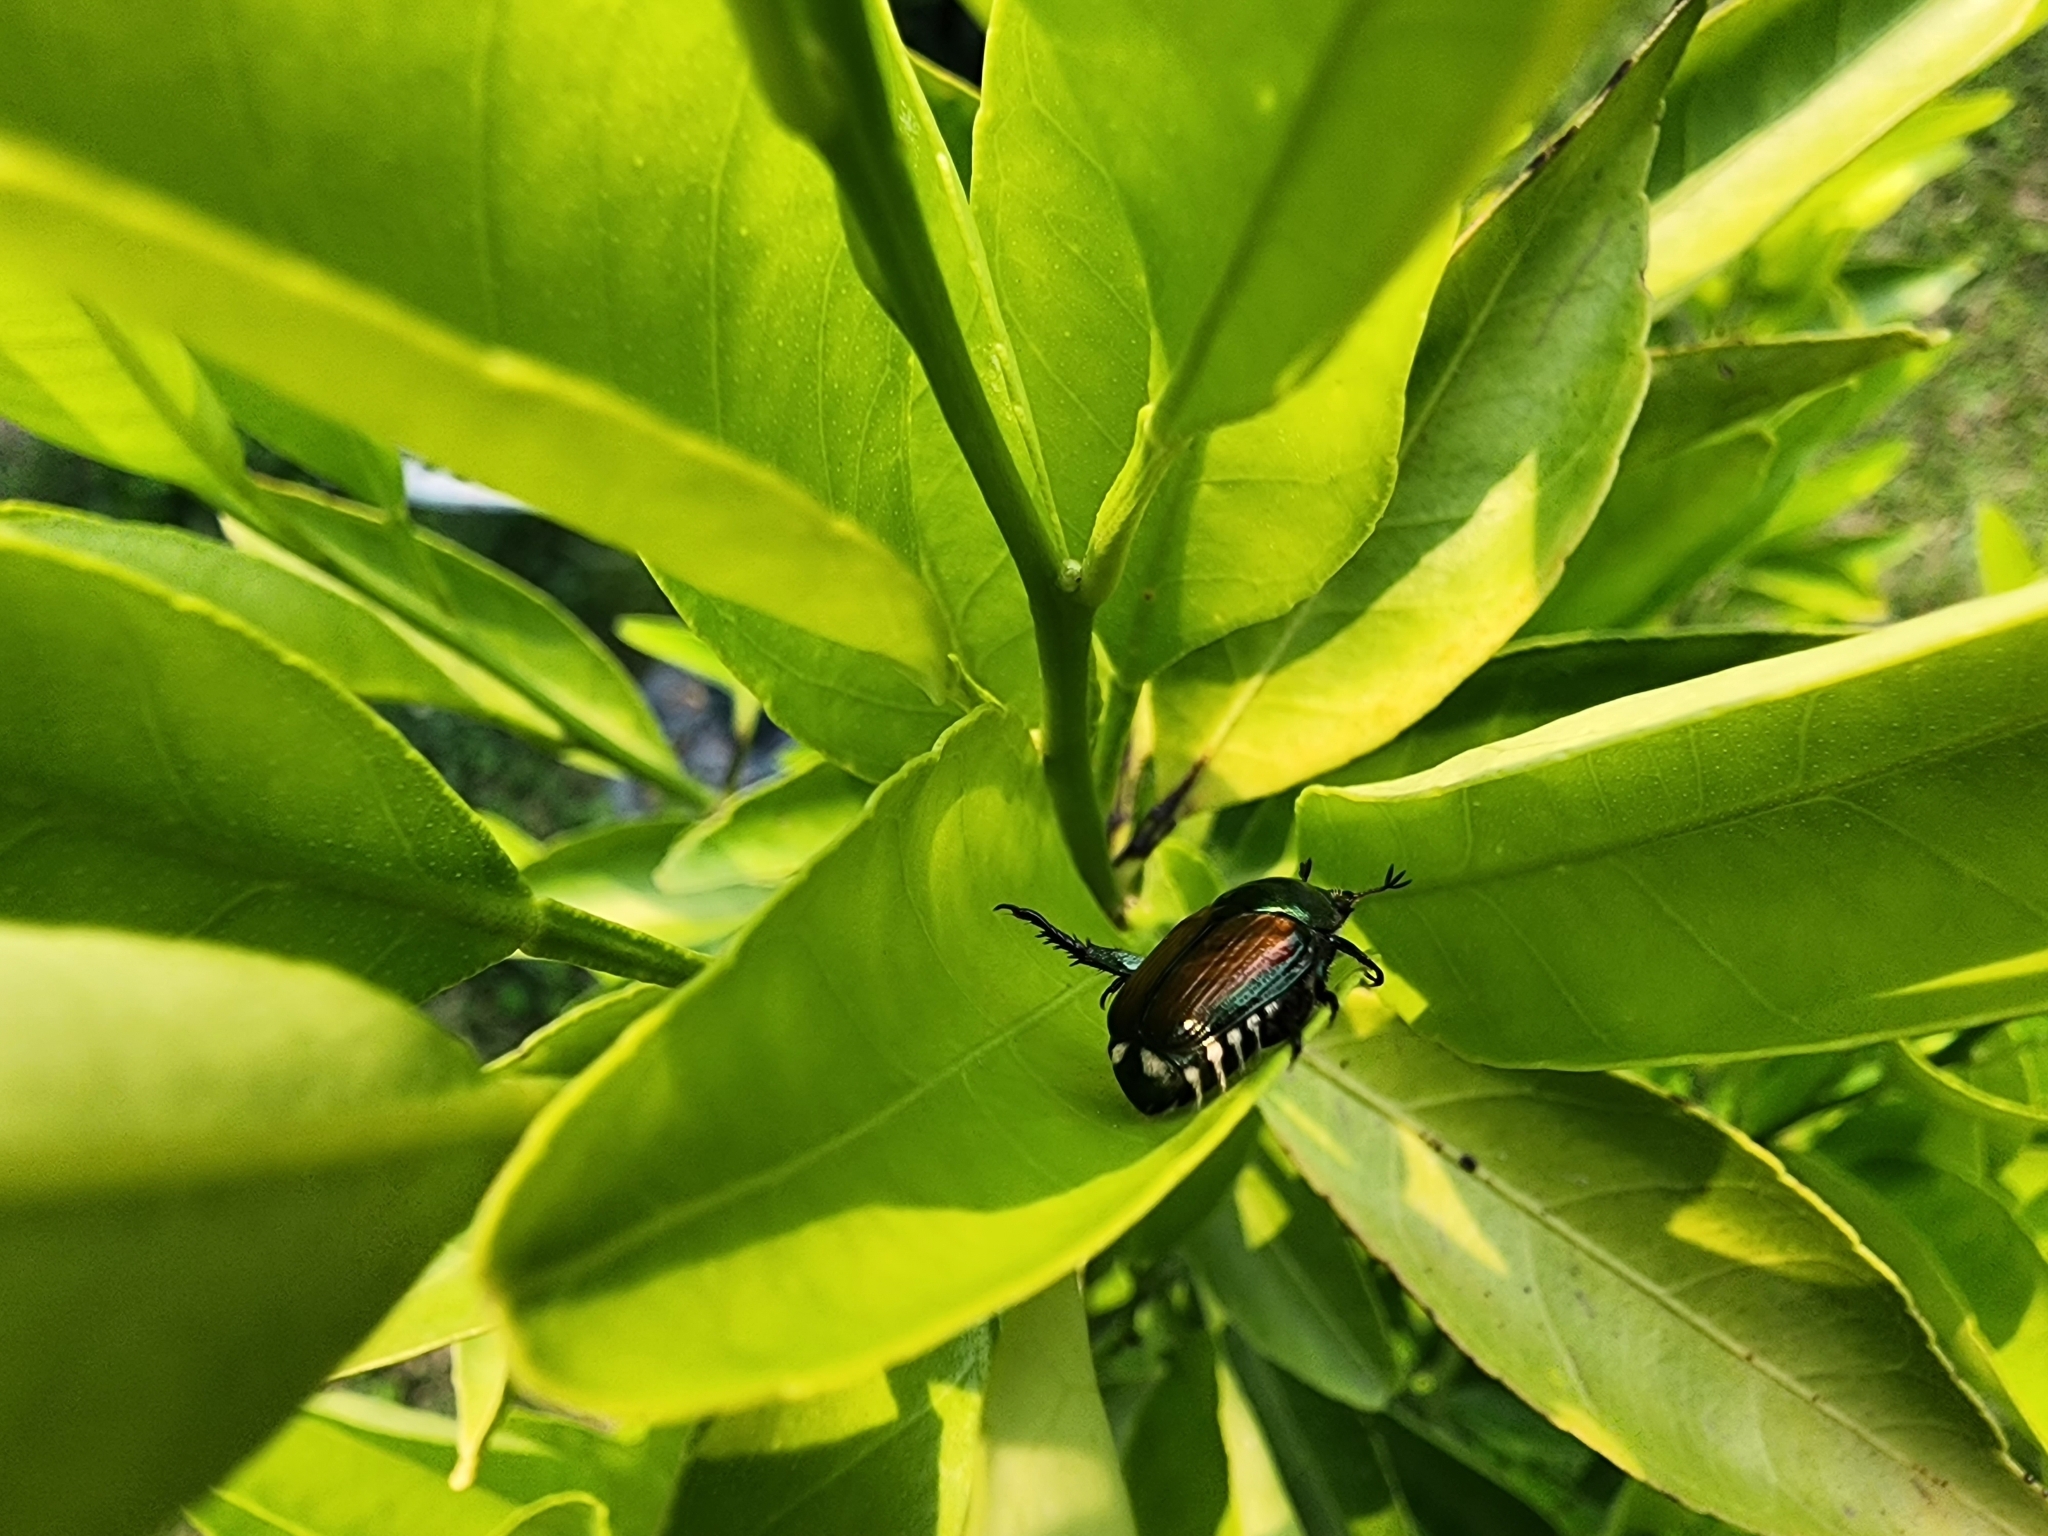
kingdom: Animalia
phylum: Arthropoda
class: Insecta
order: Coleoptera
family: Scarabaeidae
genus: Popillia
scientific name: Popillia japonica
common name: Japanese beetle
